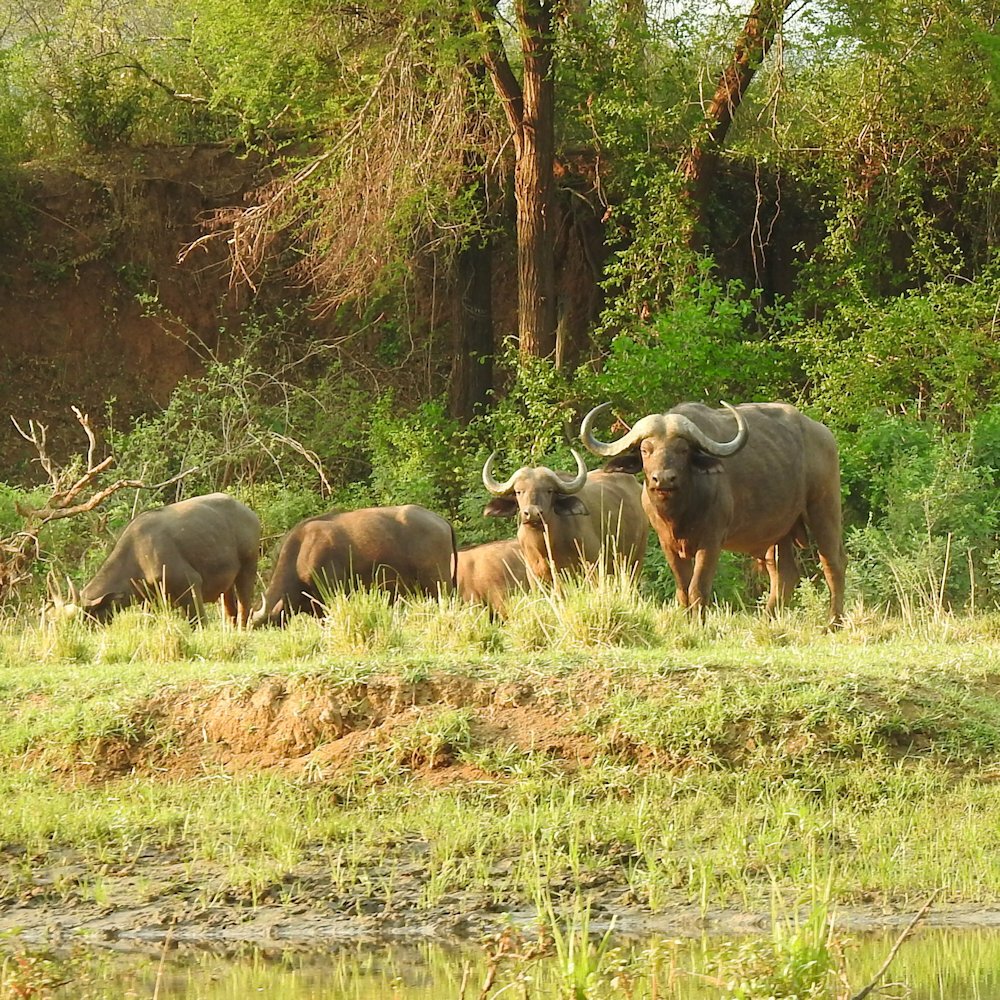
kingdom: Animalia
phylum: Chordata
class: Mammalia
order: Artiodactyla
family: Bovidae
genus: Syncerus
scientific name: Syncerus caffer
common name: African buffalo
